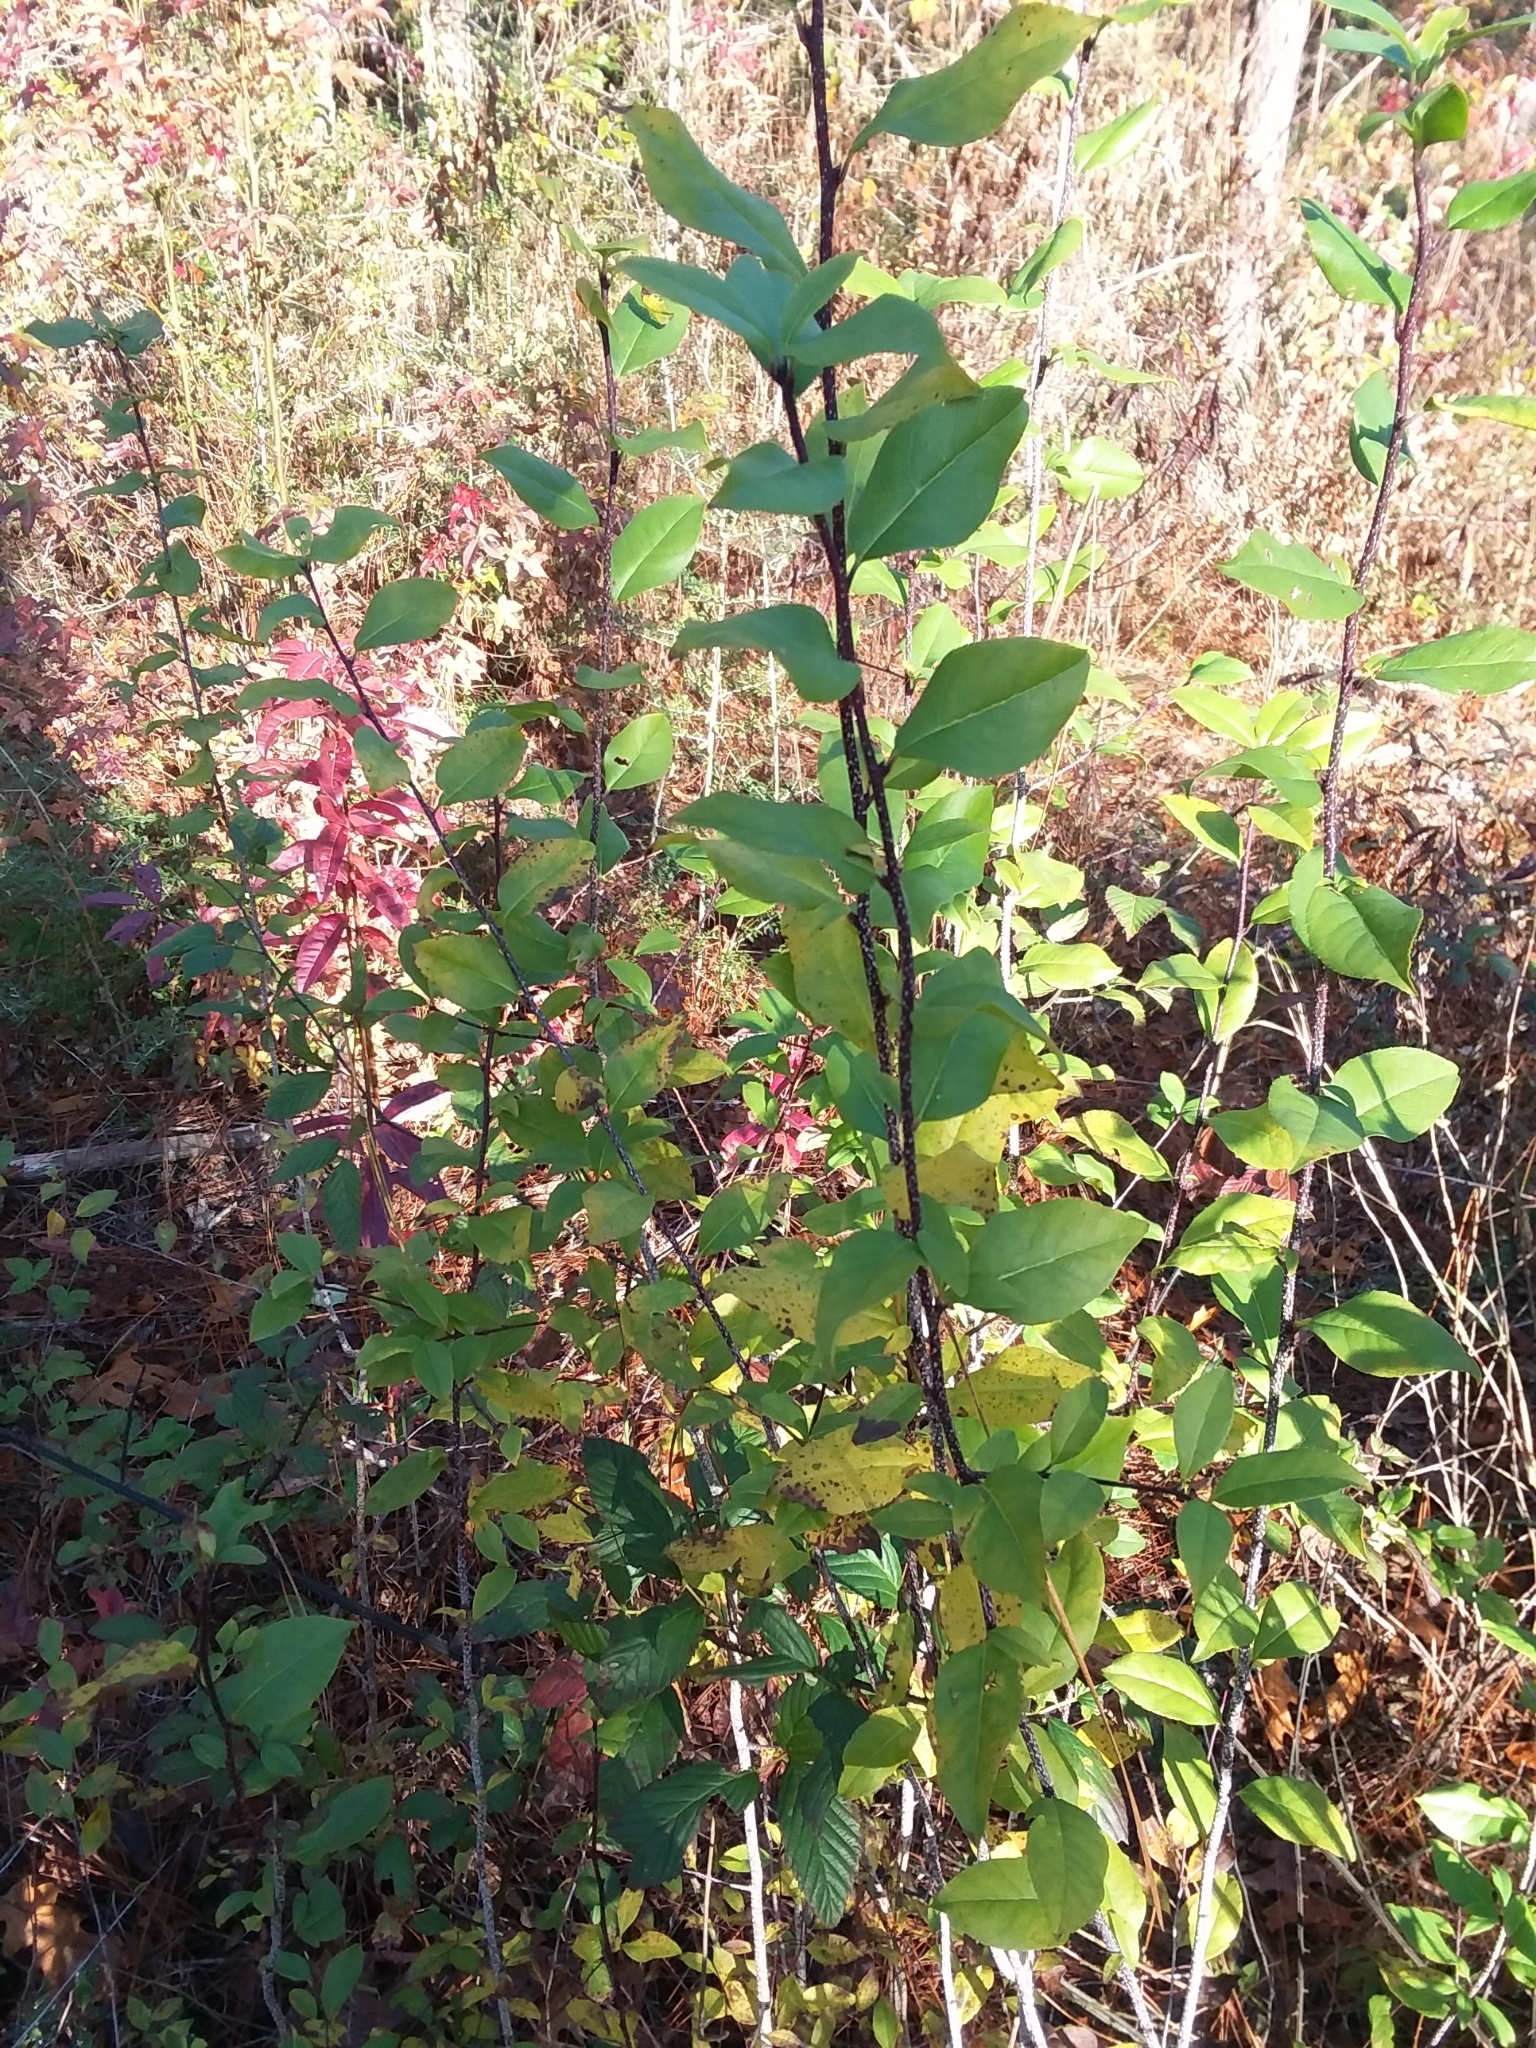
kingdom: Plantae
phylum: Tracheophyta
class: Magnoliopsida
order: Aquifoliales
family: Aquifoliaceae
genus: Ilex
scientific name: Ilex ambigua
